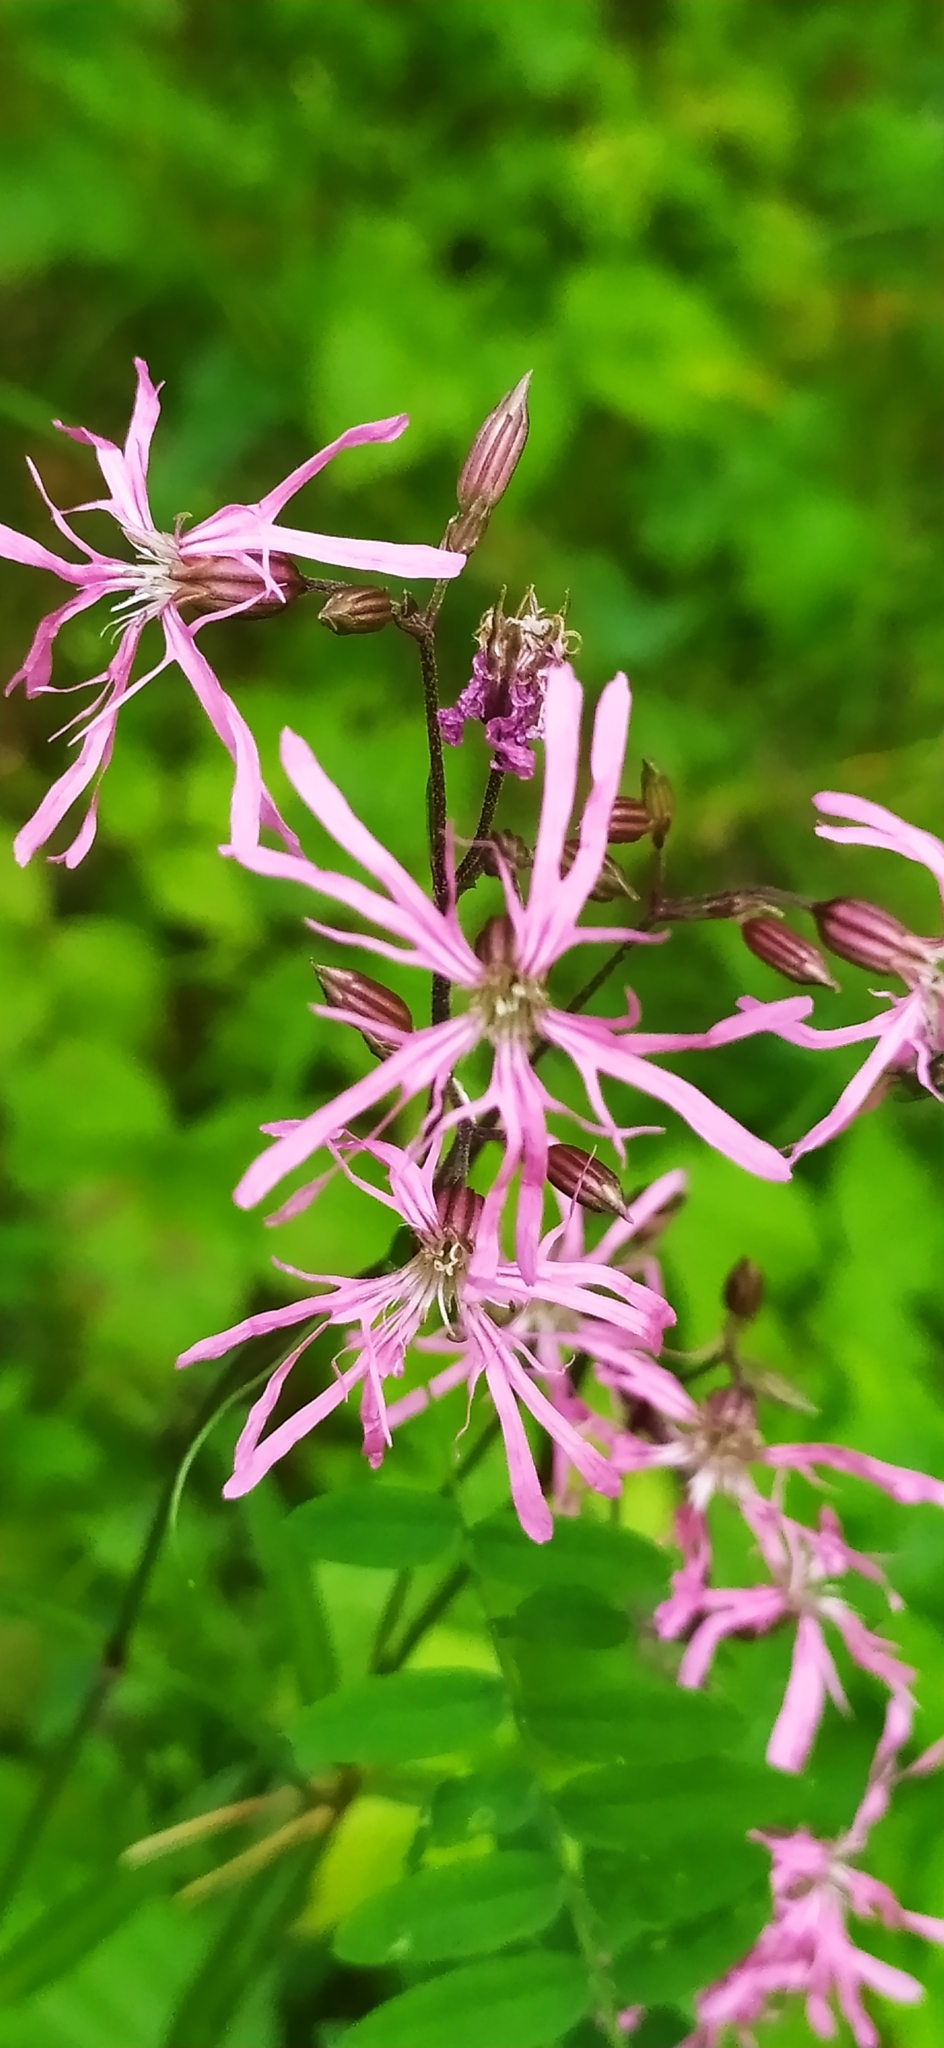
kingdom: Plantae
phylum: Tracheophyta
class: Magnoliopsida
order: Caryophyllales
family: Caryophyllaceae
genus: Silene
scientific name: Silene flos-cuculi
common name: Ragged-robin
